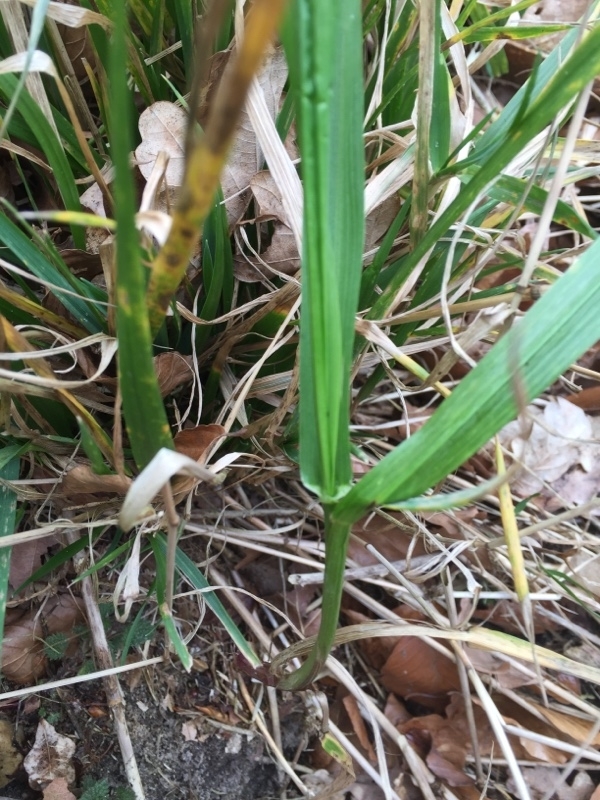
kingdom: Plantae
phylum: Tracheophyta
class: Liliopsida
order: Poales
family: Poaceae
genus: Lolium
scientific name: Lolium giganteum
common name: Giant fescue
